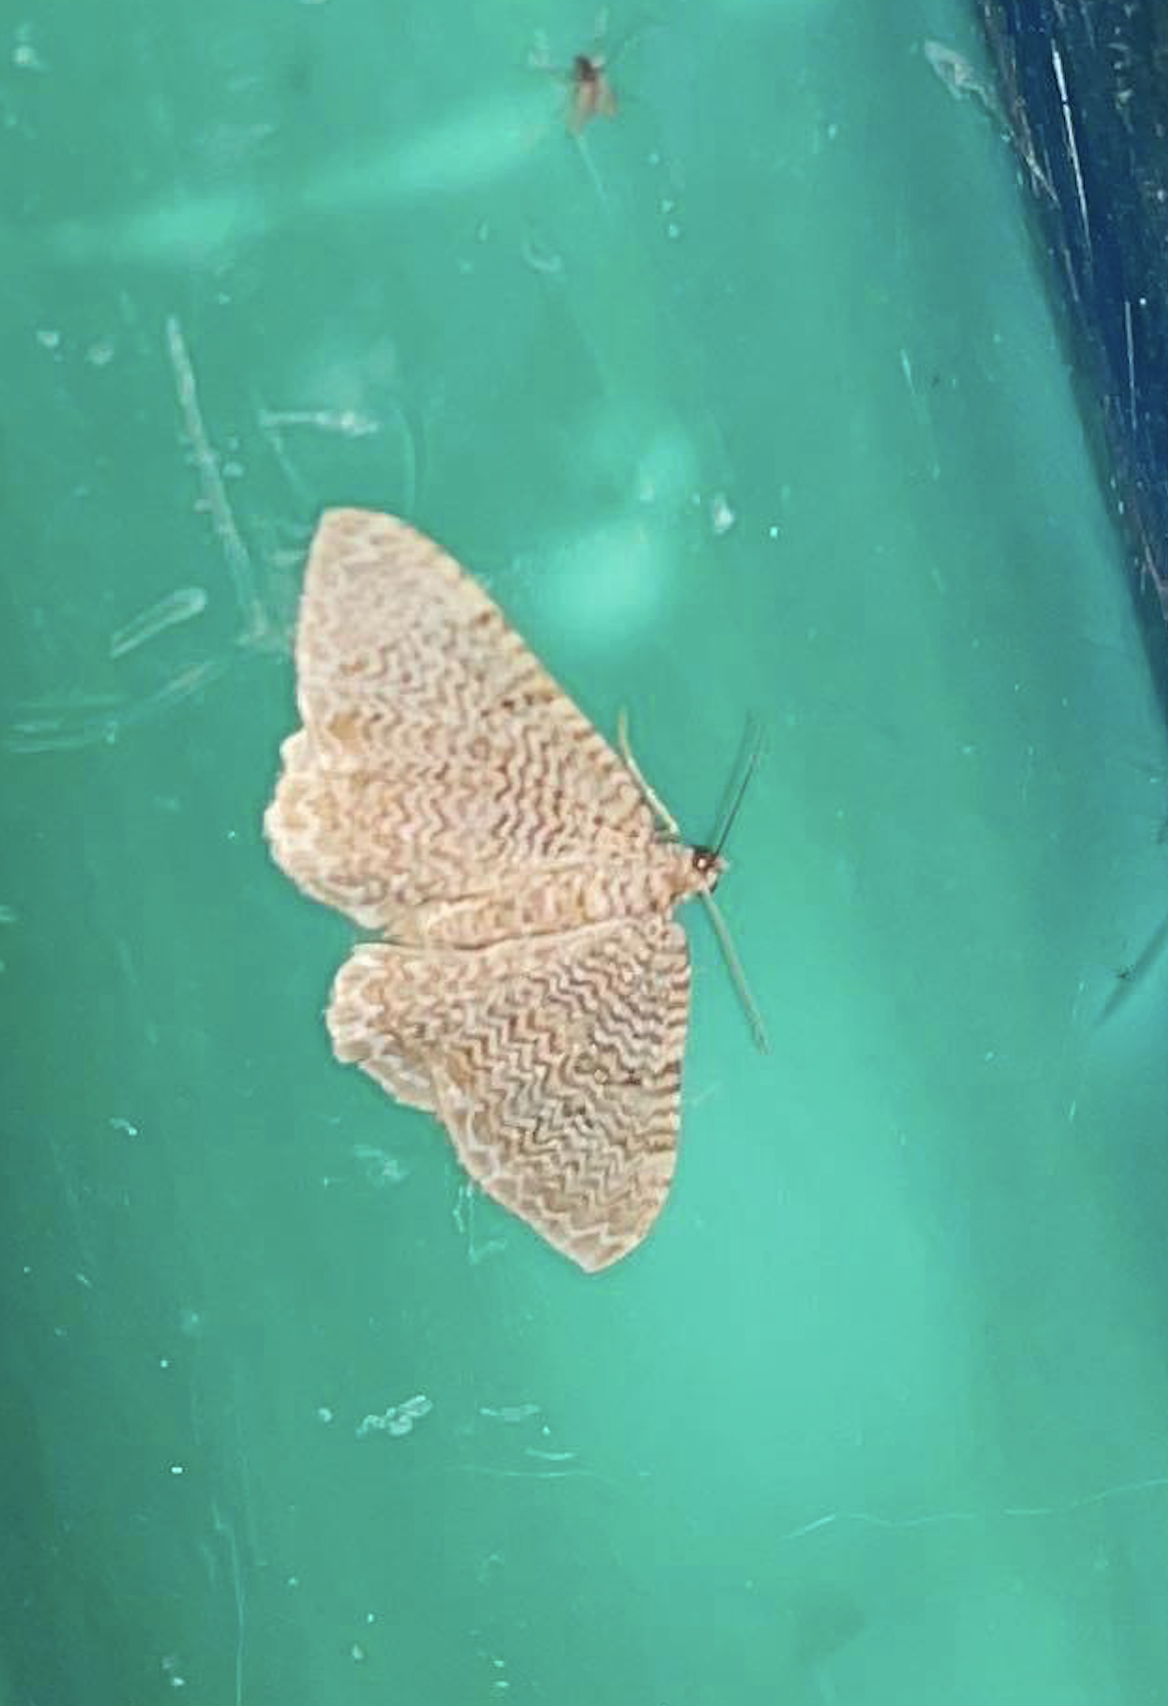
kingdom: Animalia
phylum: Arthropoda
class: Insecta
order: Lepidoptera
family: Geometridae
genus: Rheumaptera
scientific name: Rheumaptera
